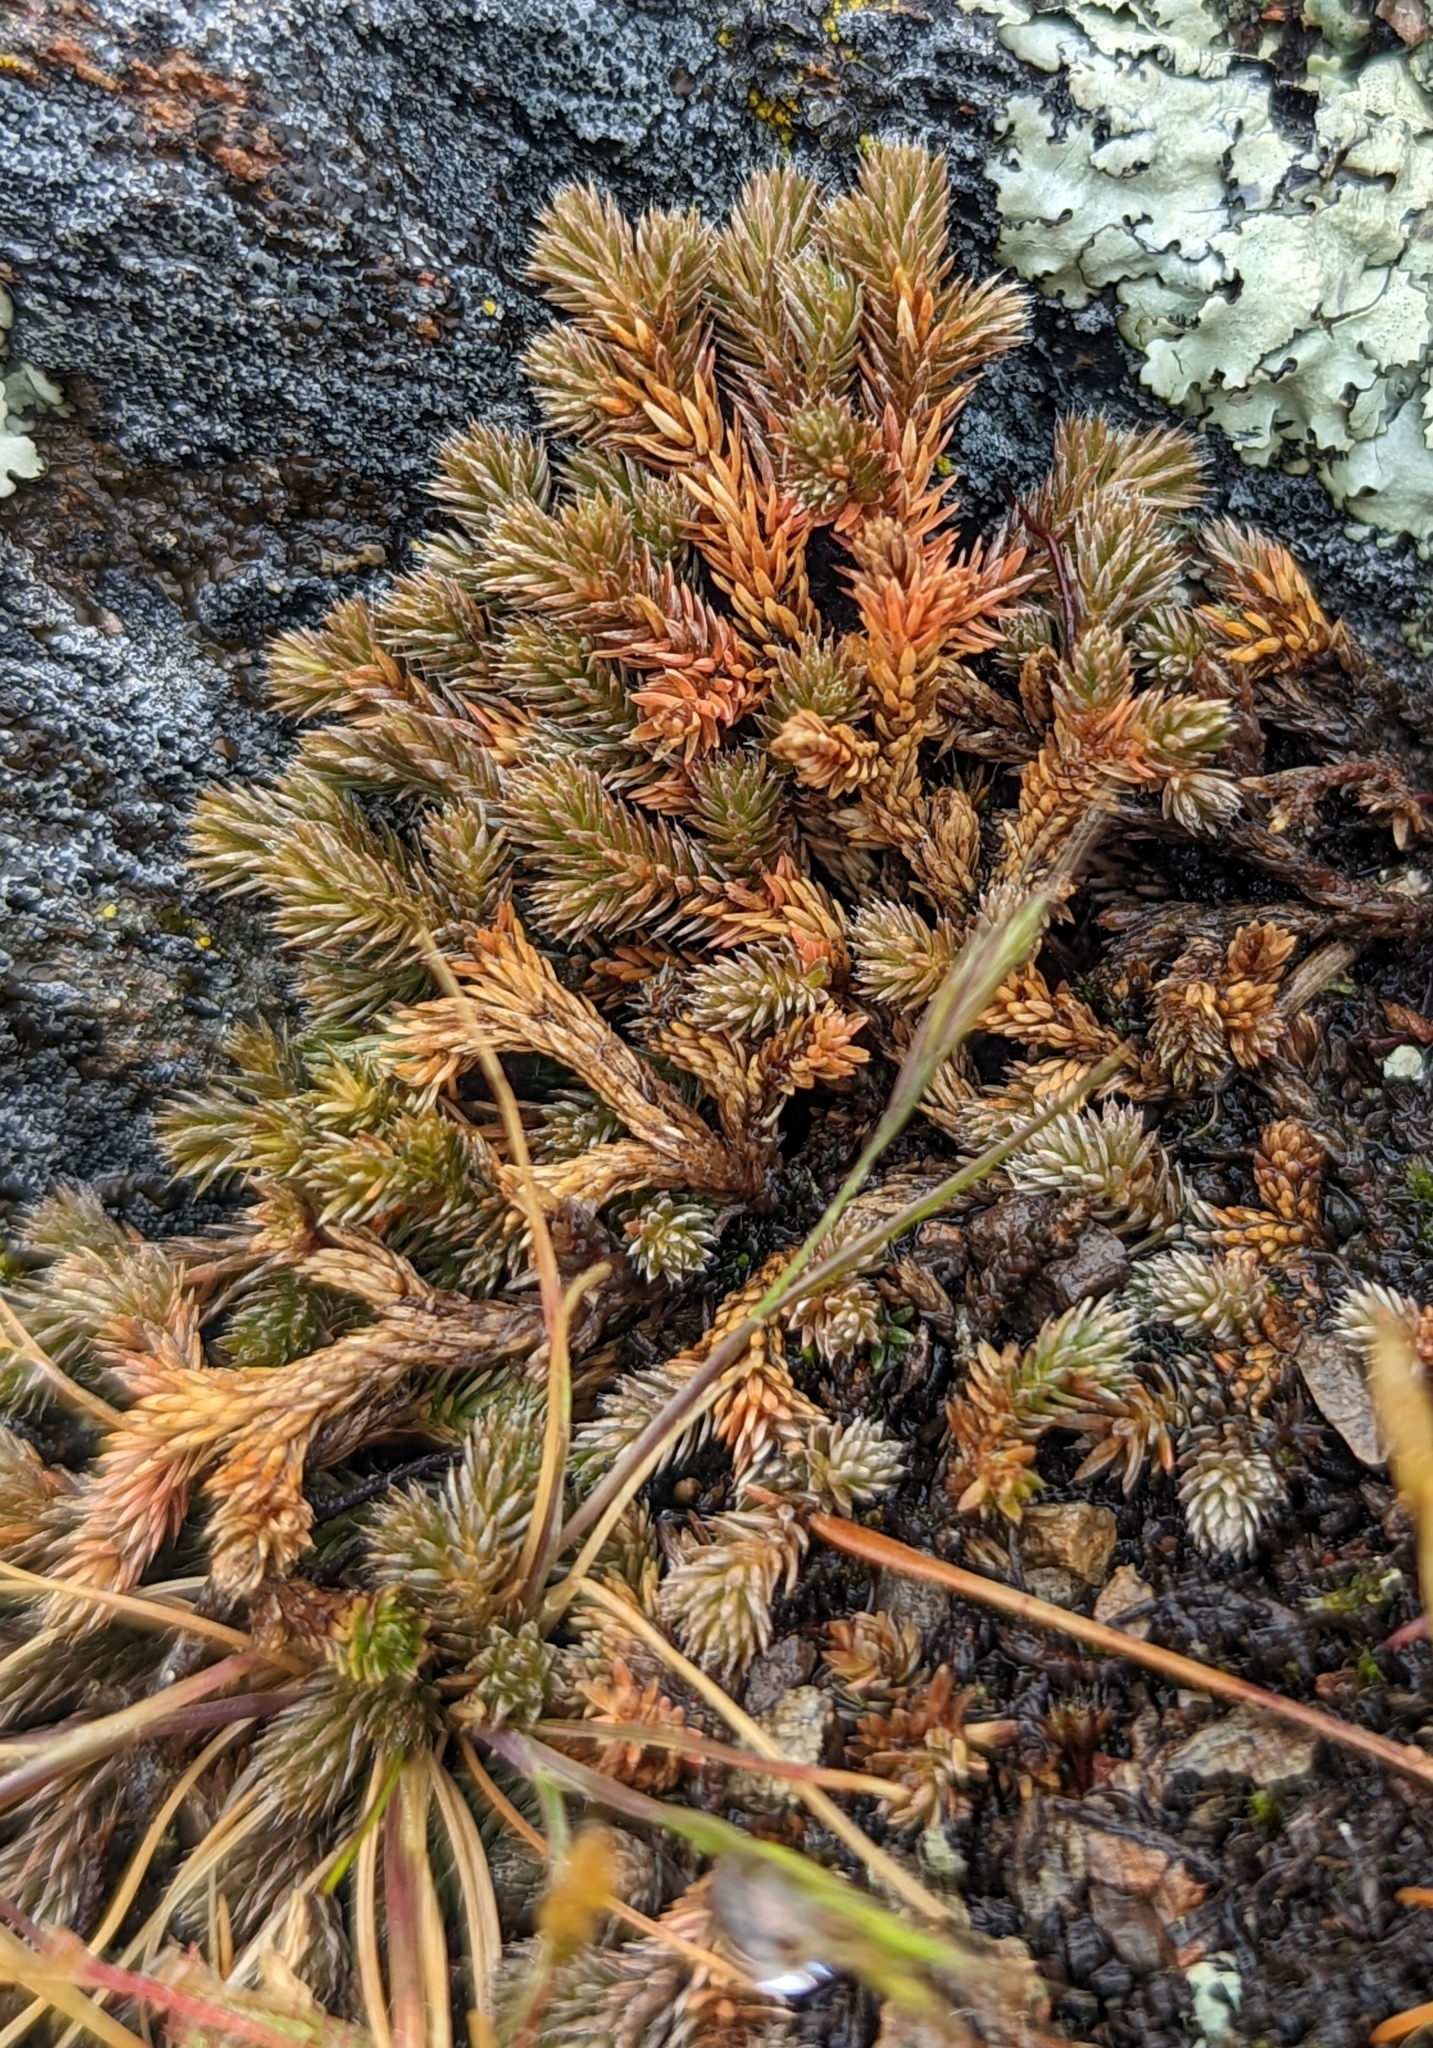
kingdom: Plantae
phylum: Tracheophyta
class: Lycopodiopsida
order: Selaginellales
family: Selaginellaceae
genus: Selaginella
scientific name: Selaginella wallacei
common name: Wallace's selaginella
